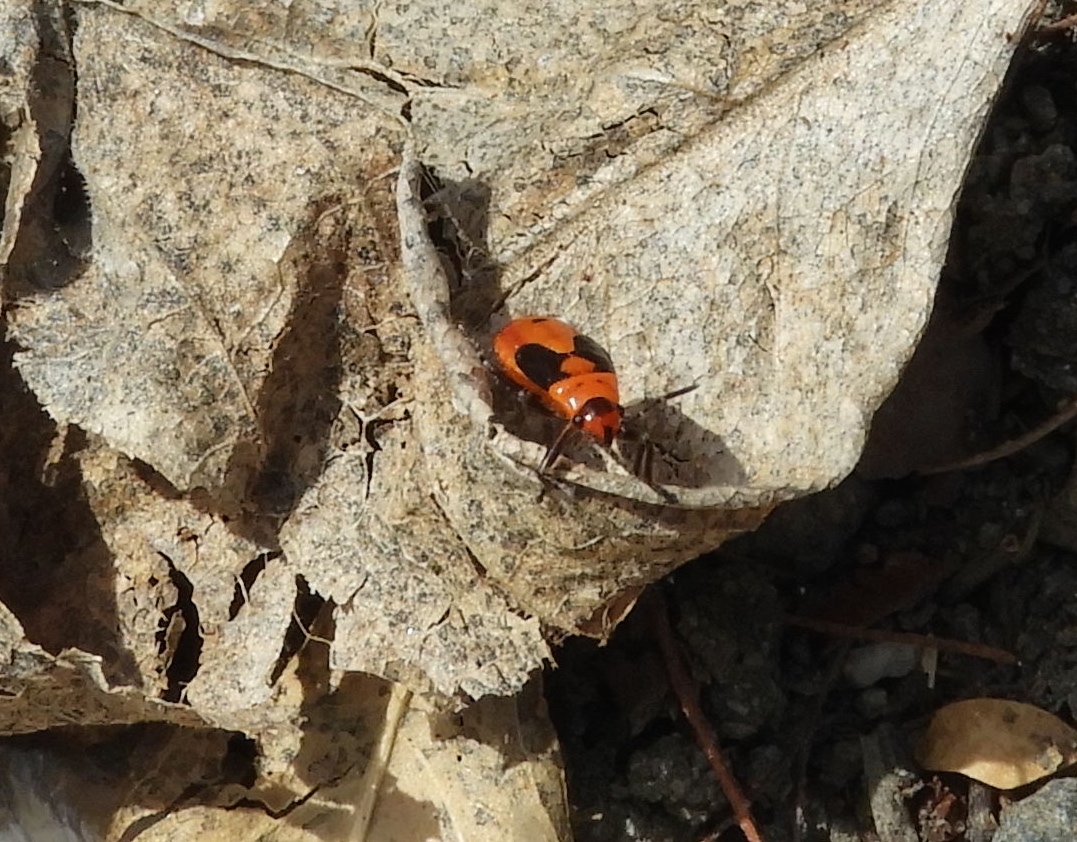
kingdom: Animalia
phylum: Arthropoda
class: Insecta
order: Hemiptera
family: Lygaeidae
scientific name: Lygaeidae
